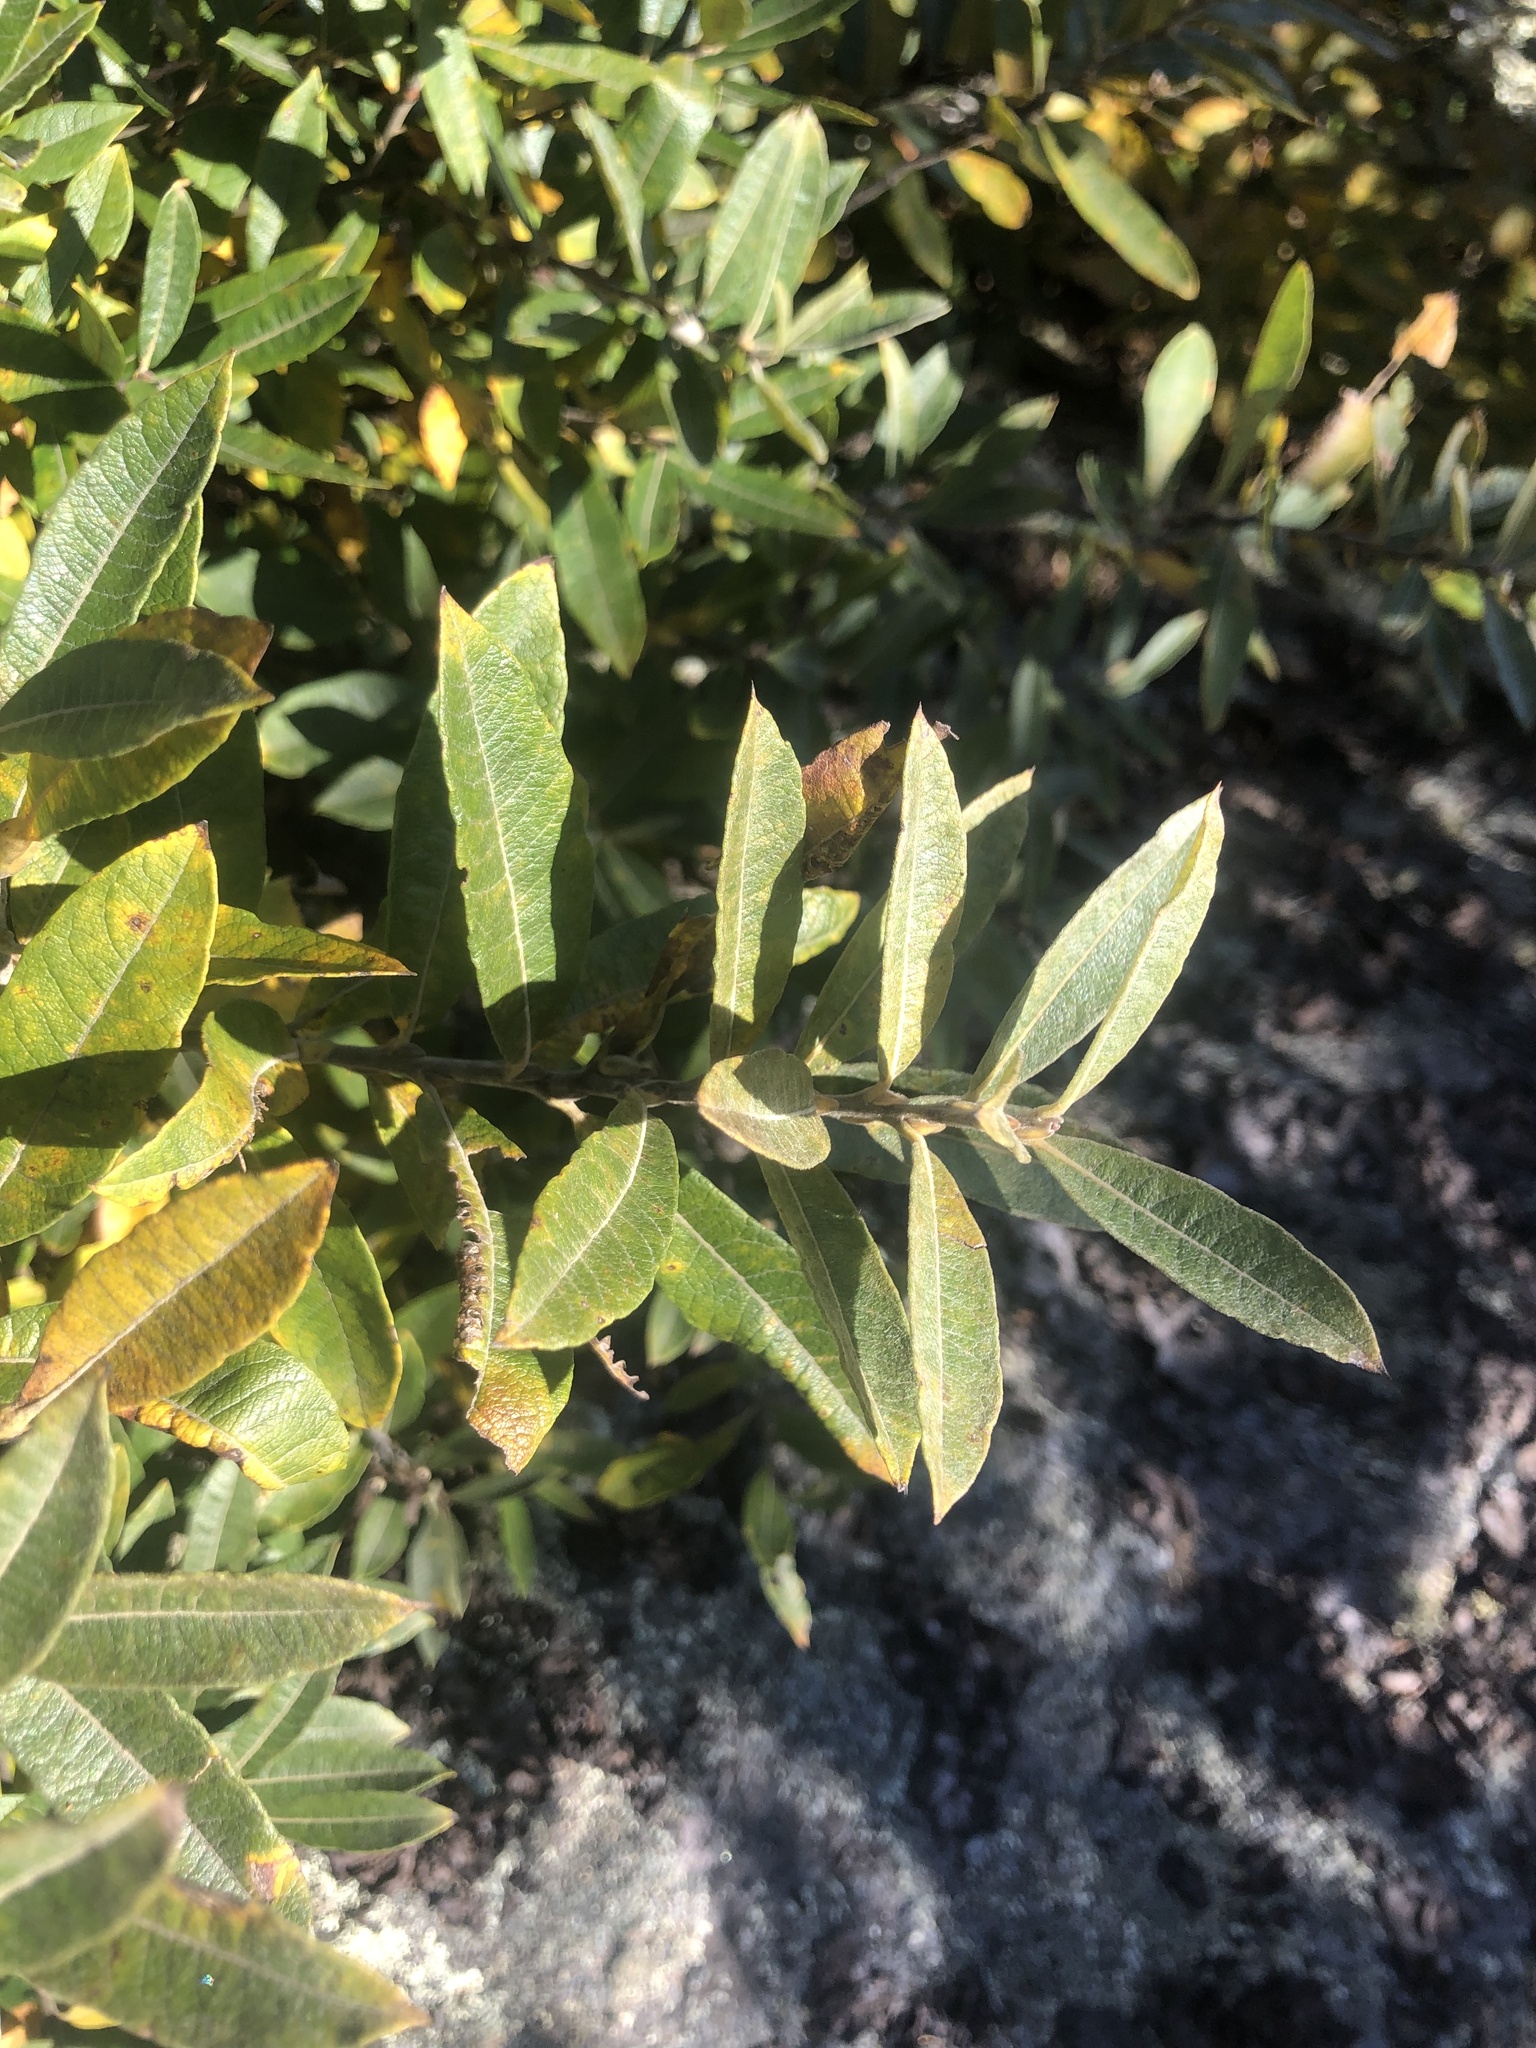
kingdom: Plantae
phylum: Tracheophyta
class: Magnoliopsida
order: Malpighiales
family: Salicaceae
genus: Salix
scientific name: Salix humilis
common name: Prairie willow
